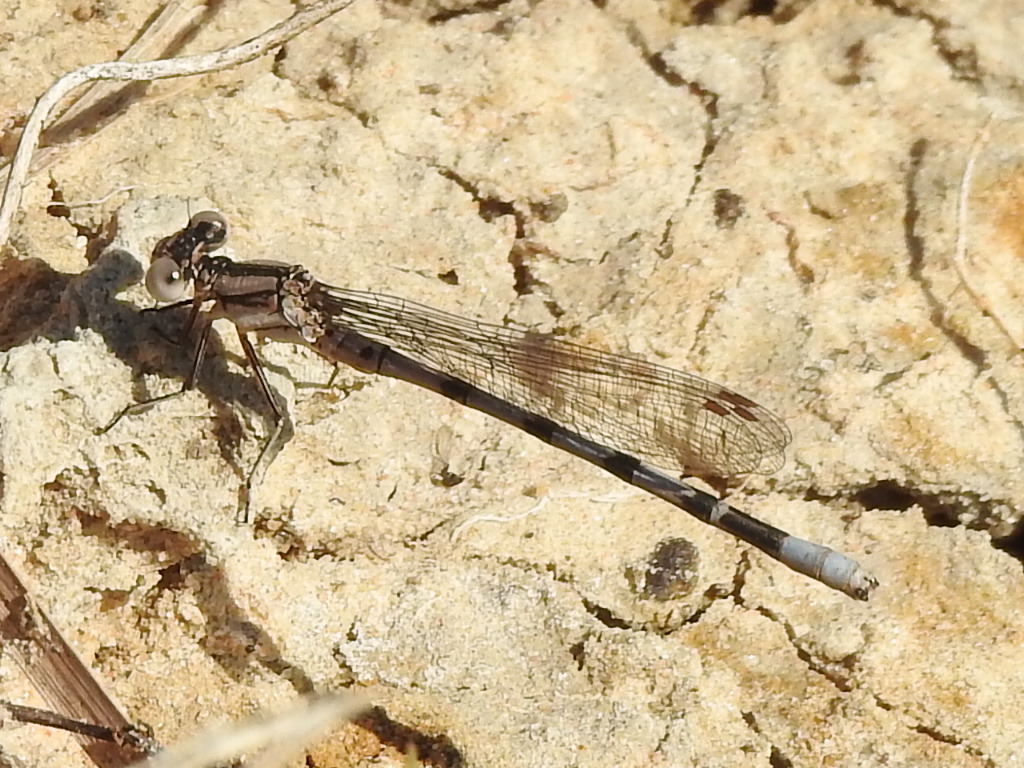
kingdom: Animalia
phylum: Arthropoda
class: Insecta
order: Odonata
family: Coenagrionidae
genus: Argia
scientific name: Argia nahuana
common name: Aztec dancer
